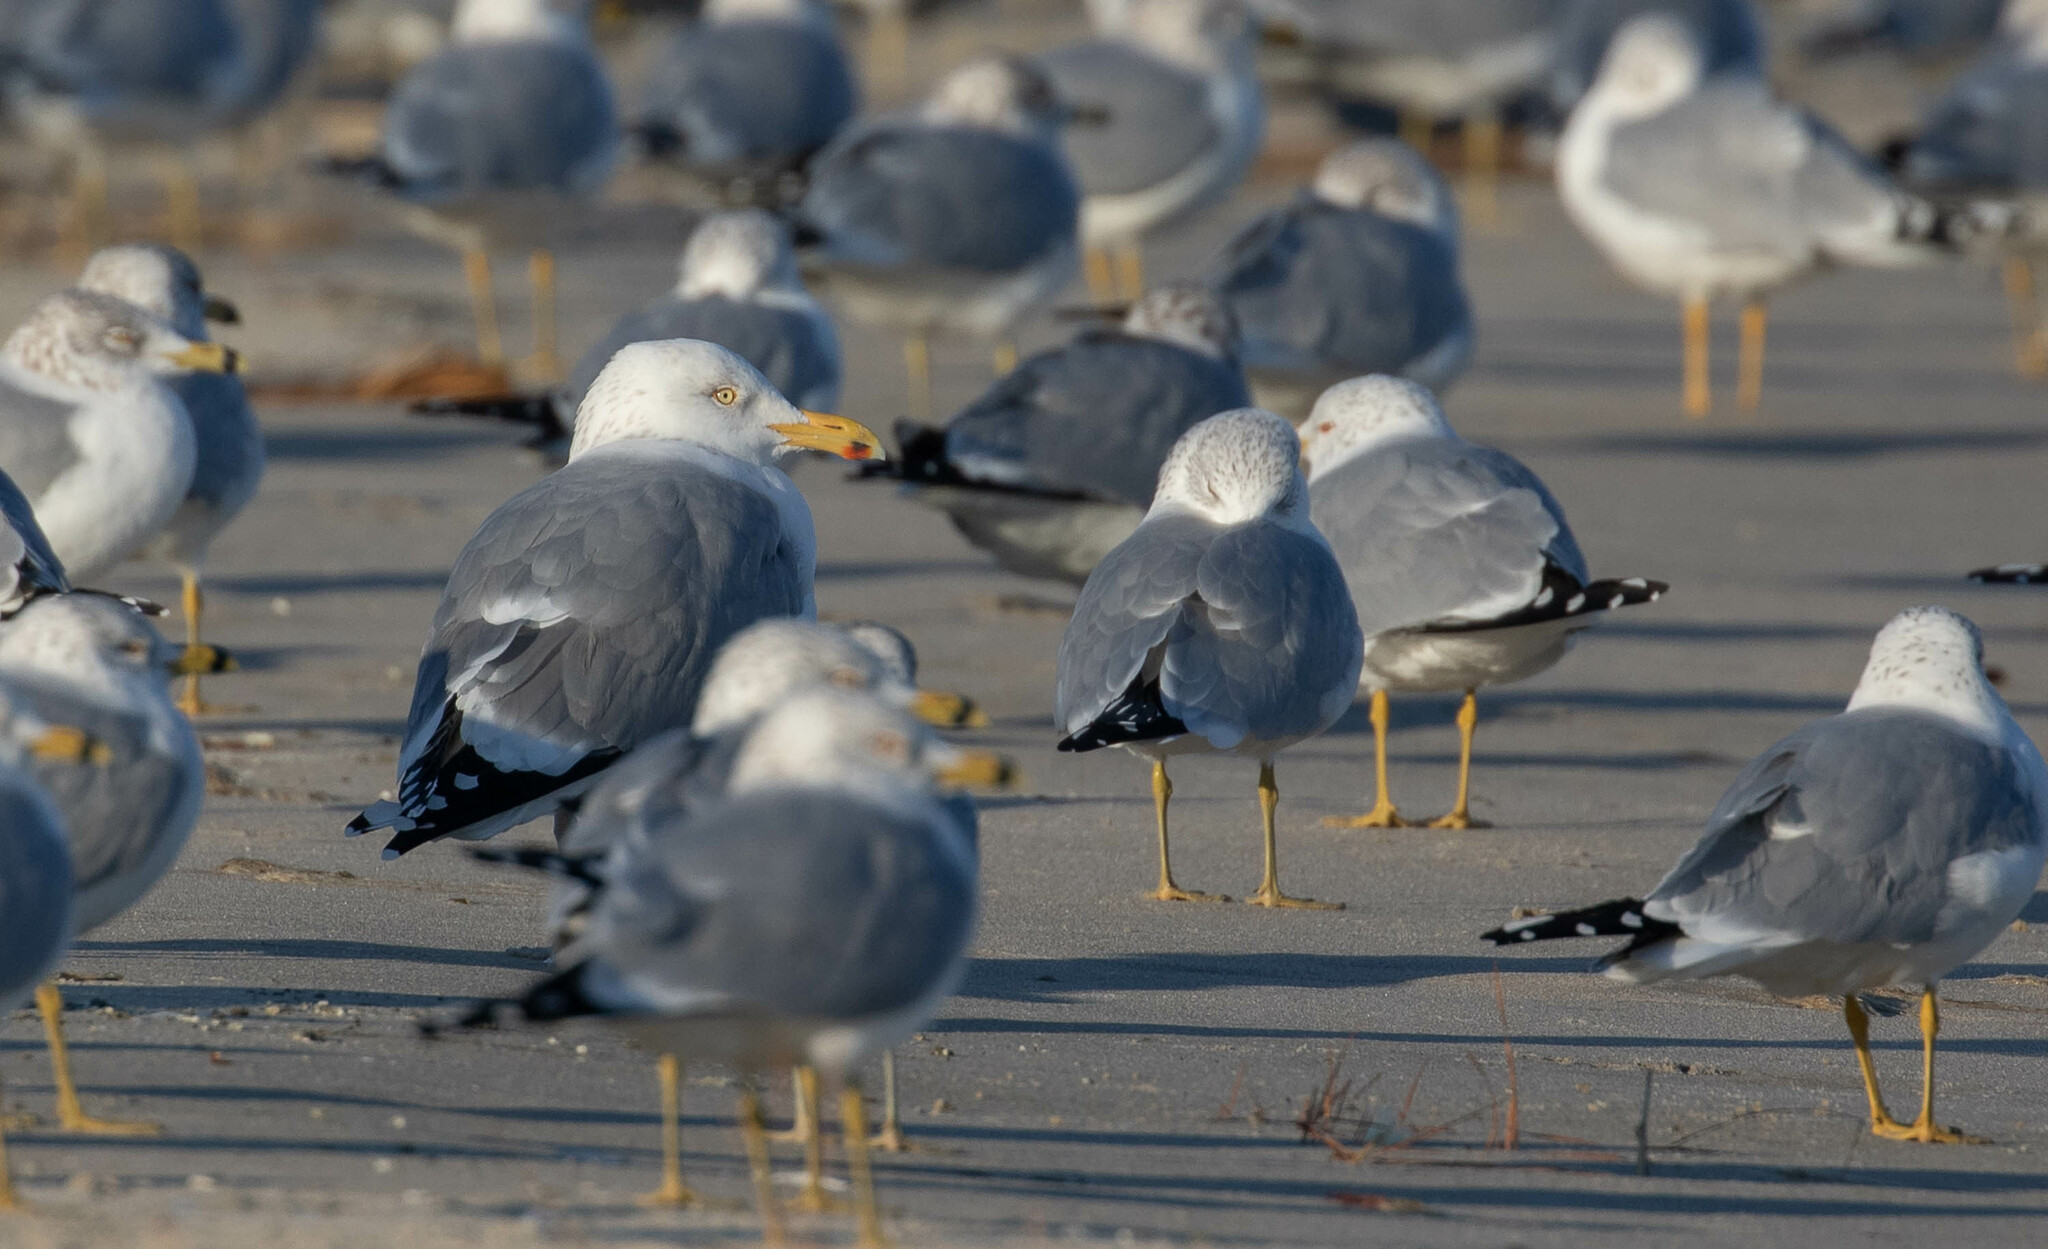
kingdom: Animalia
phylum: Chordata
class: Aves
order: Charadriiformes
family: Laridae
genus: Larus
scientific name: Larus delawarensis
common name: Ring-billed gull
